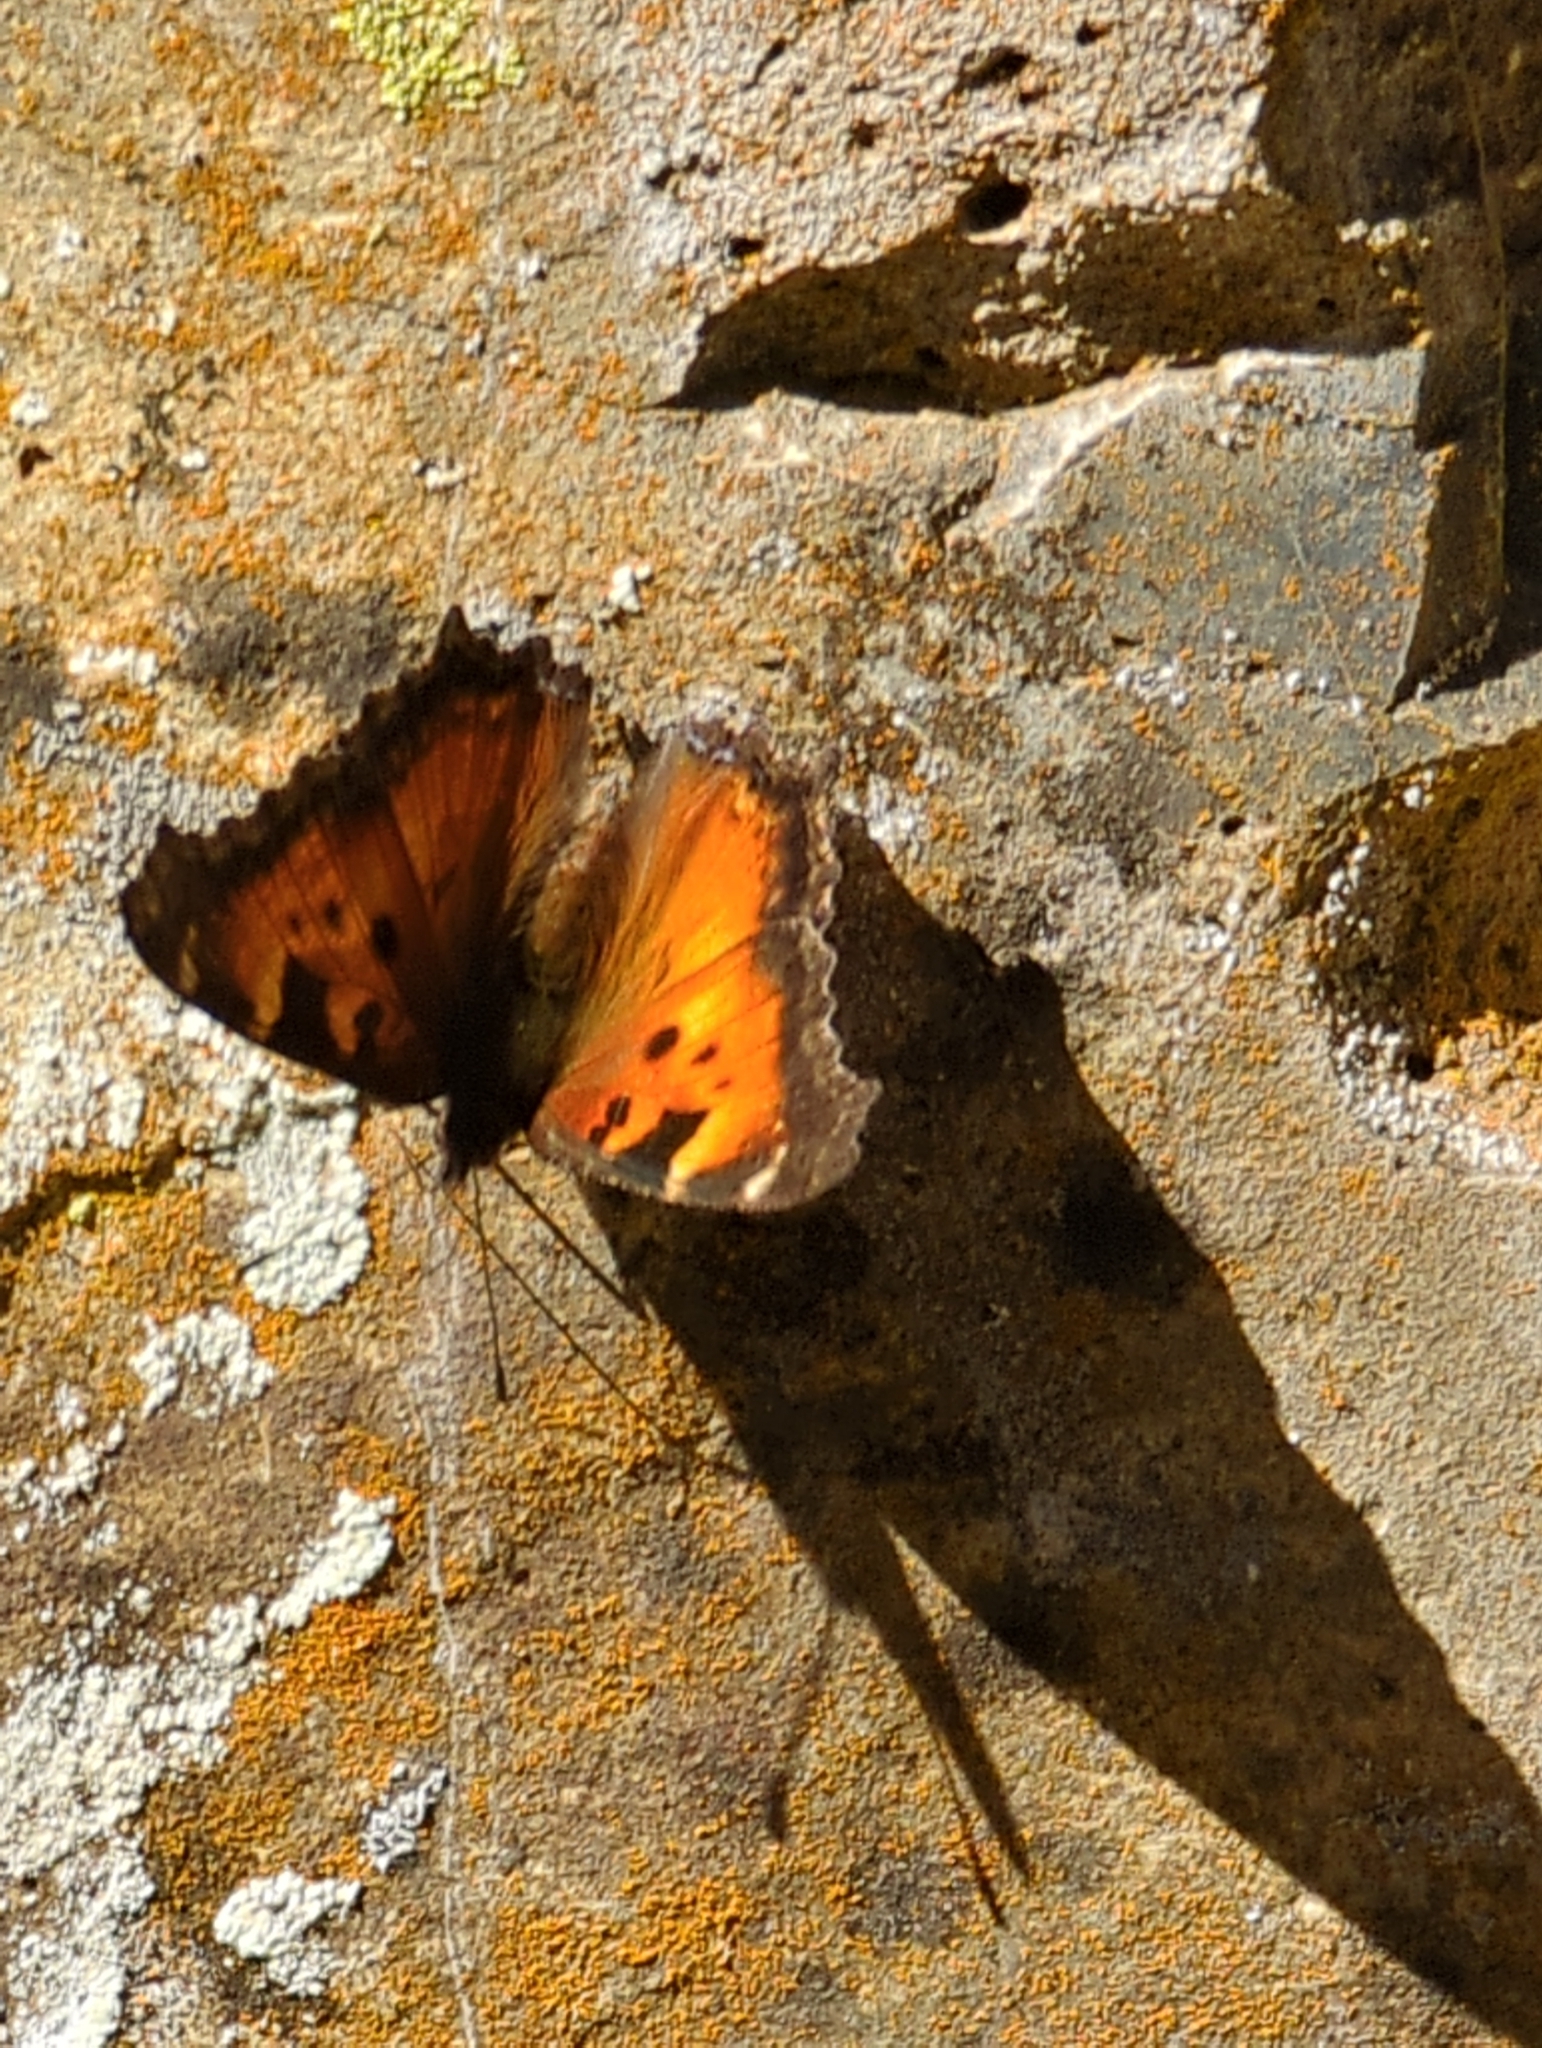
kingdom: Animalia
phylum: Arthropoda
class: Insecta
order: Lepidoptera
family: Nymphalidae
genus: Nymphalis
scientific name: Nymphalis californica
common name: California tortoiseshell
